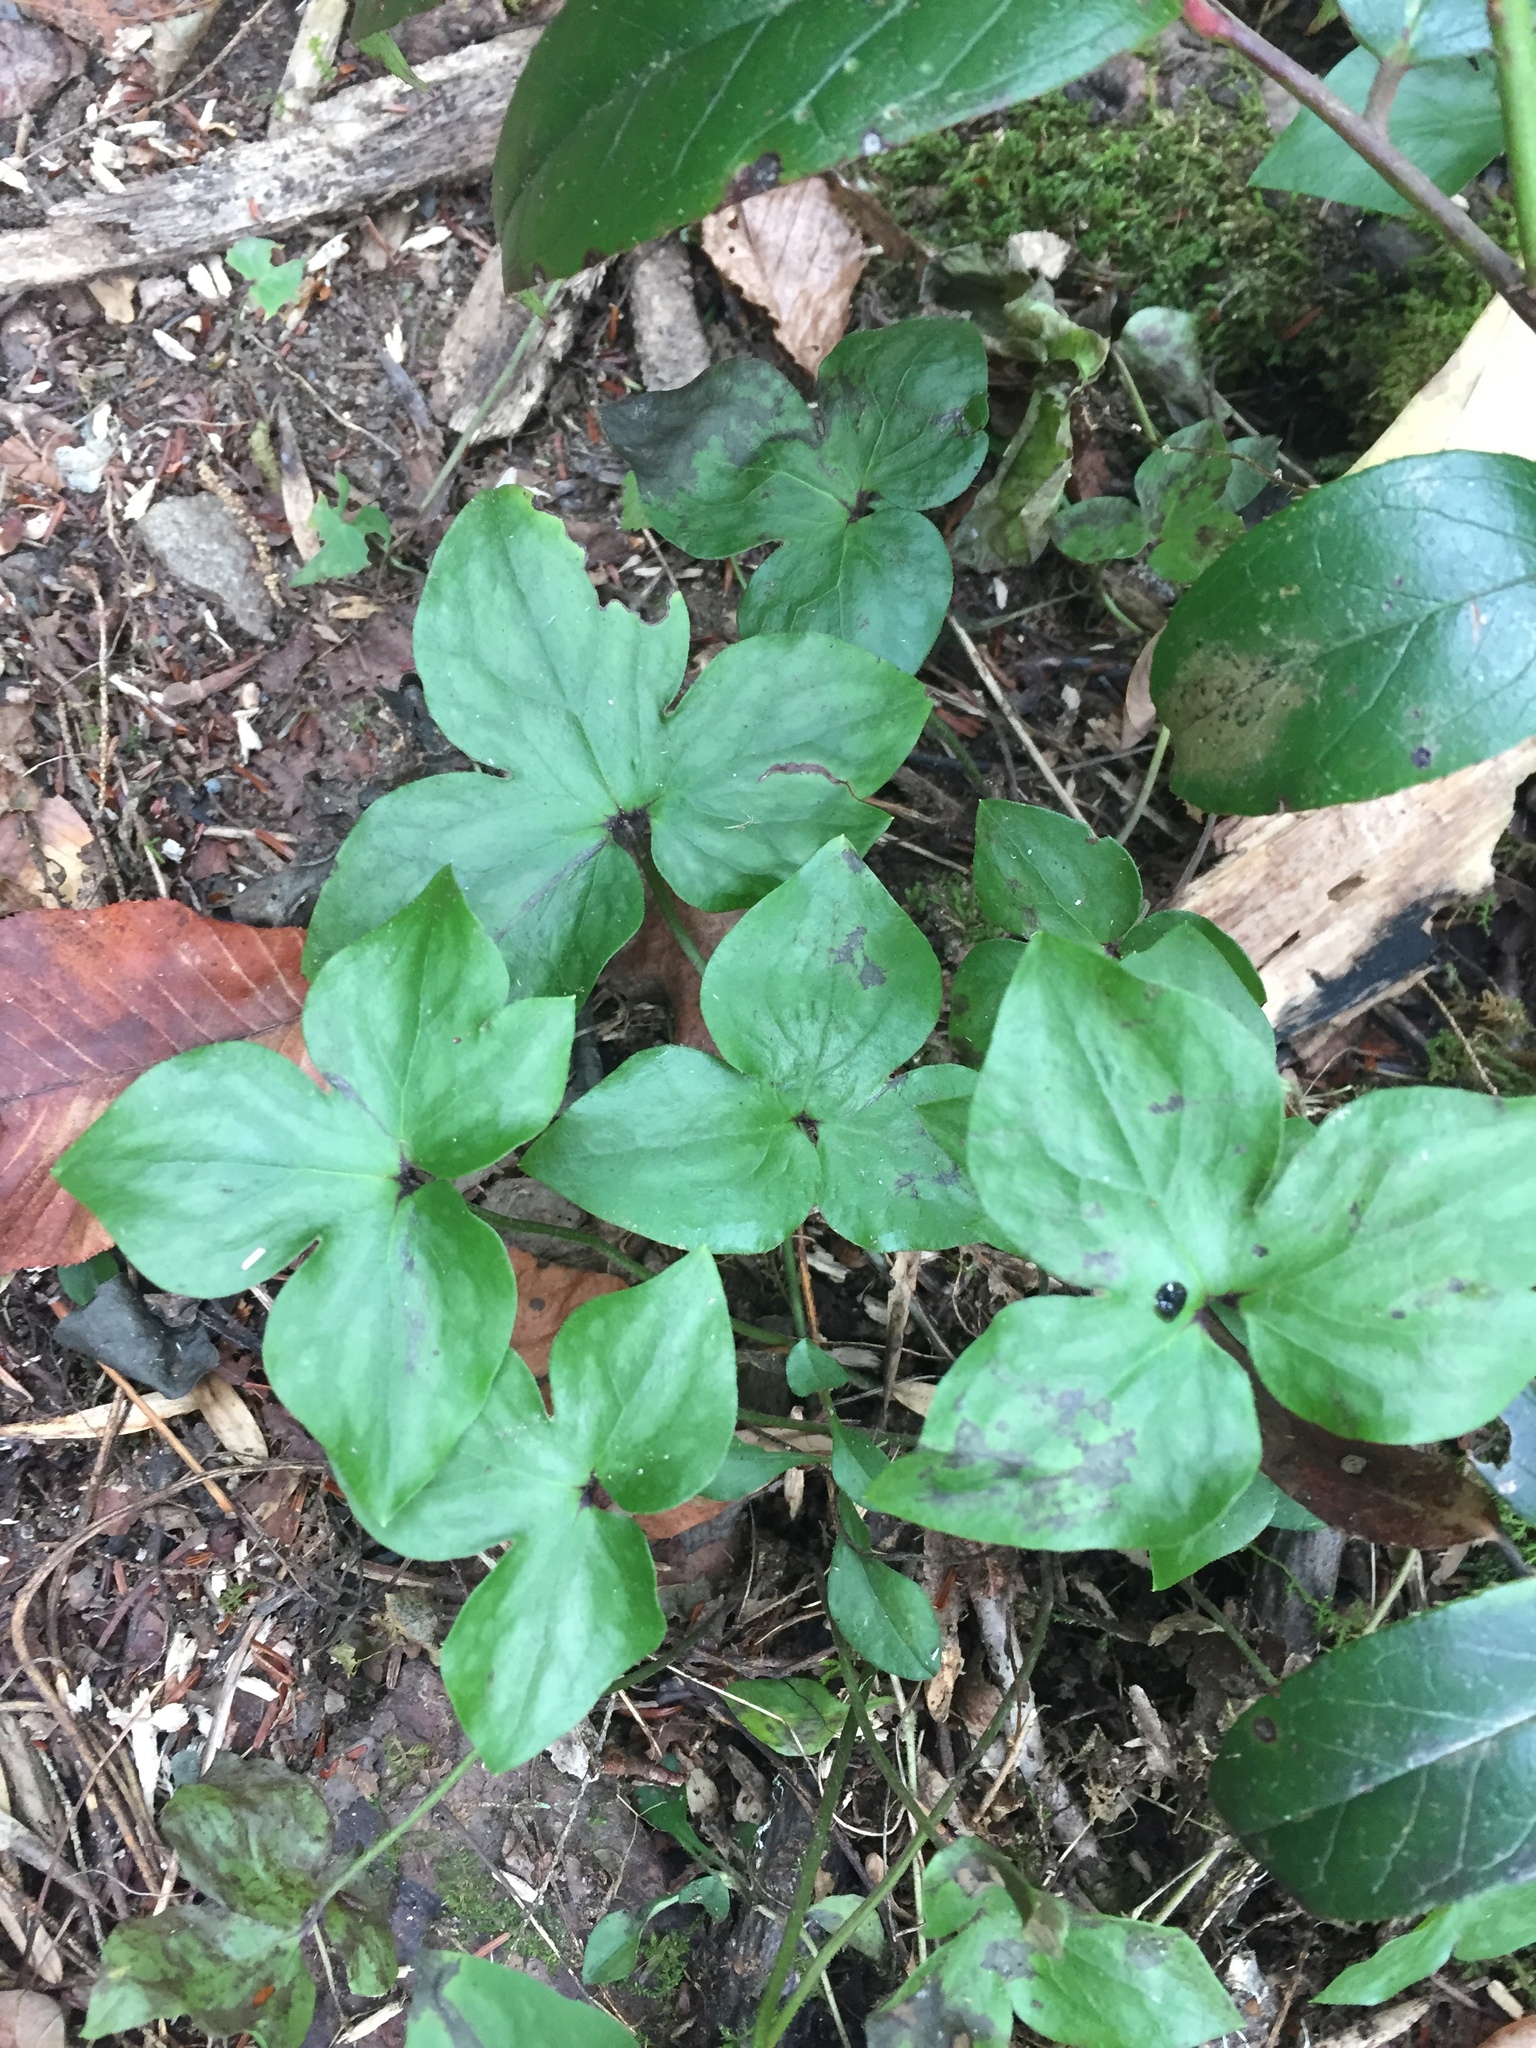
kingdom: Plantae
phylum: Tracheophyta
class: Magnoliopsida
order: Ranunculales
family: Ranunculaceae
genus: Hepatica
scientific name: Hepatica acutiloba
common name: Sharp-lobed hepatica
